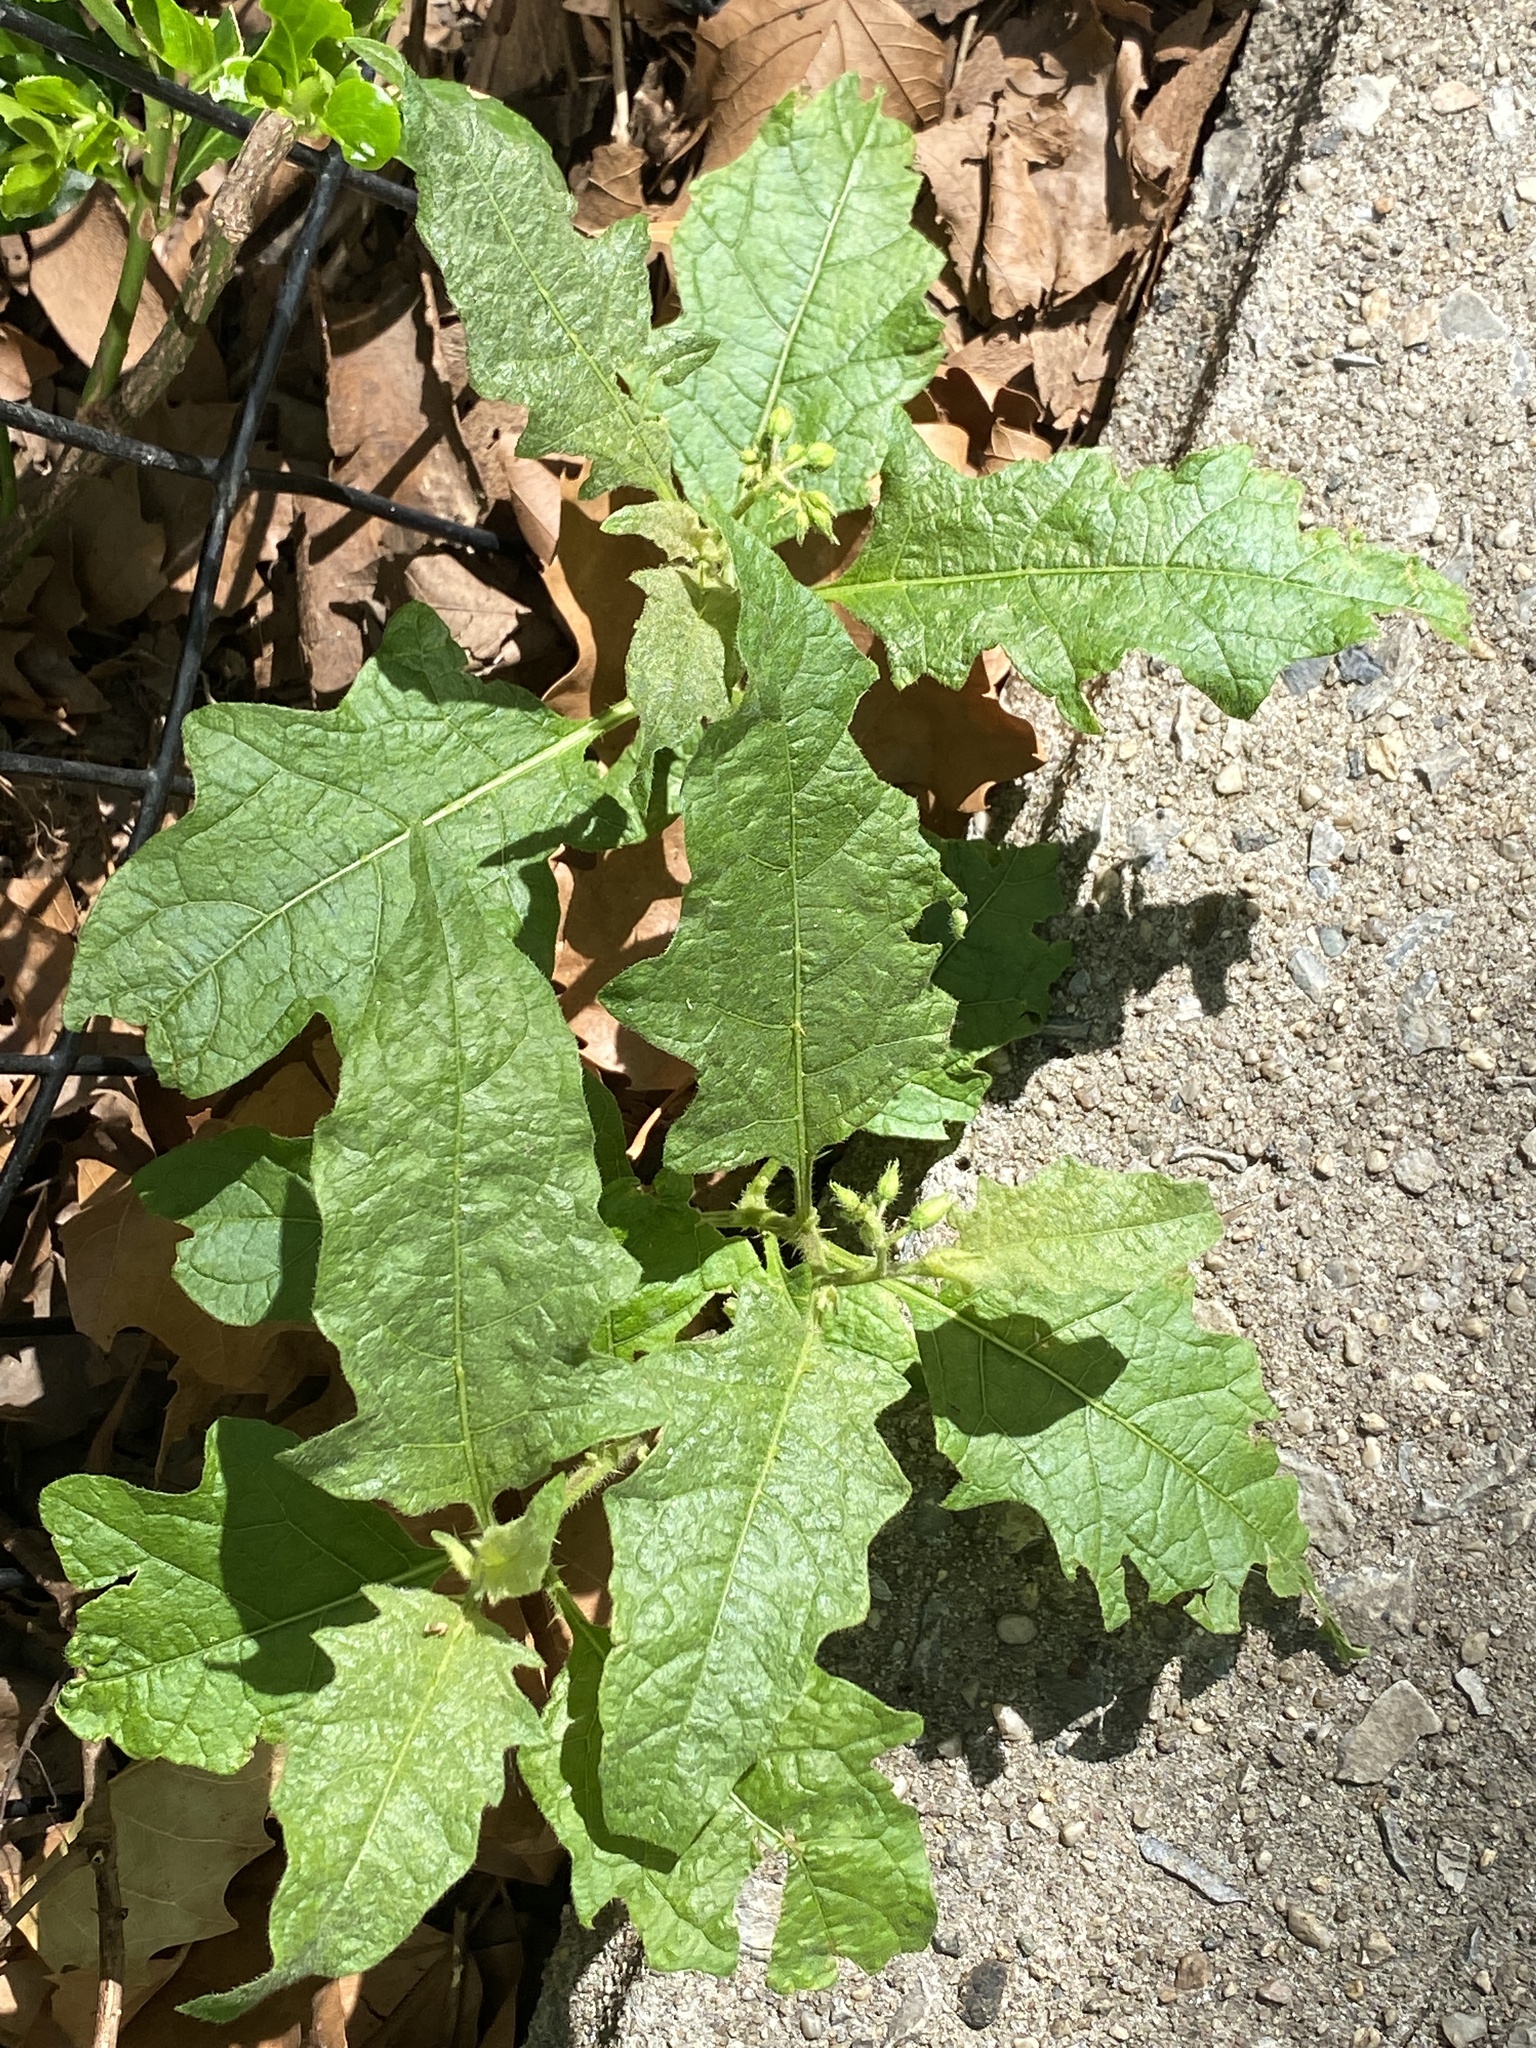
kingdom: Plantae
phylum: Tracheophyta
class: Magnoliopsida
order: Solanales
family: Solanaceae
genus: Solanum
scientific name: Solanum carolinense
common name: Horse-nettle
